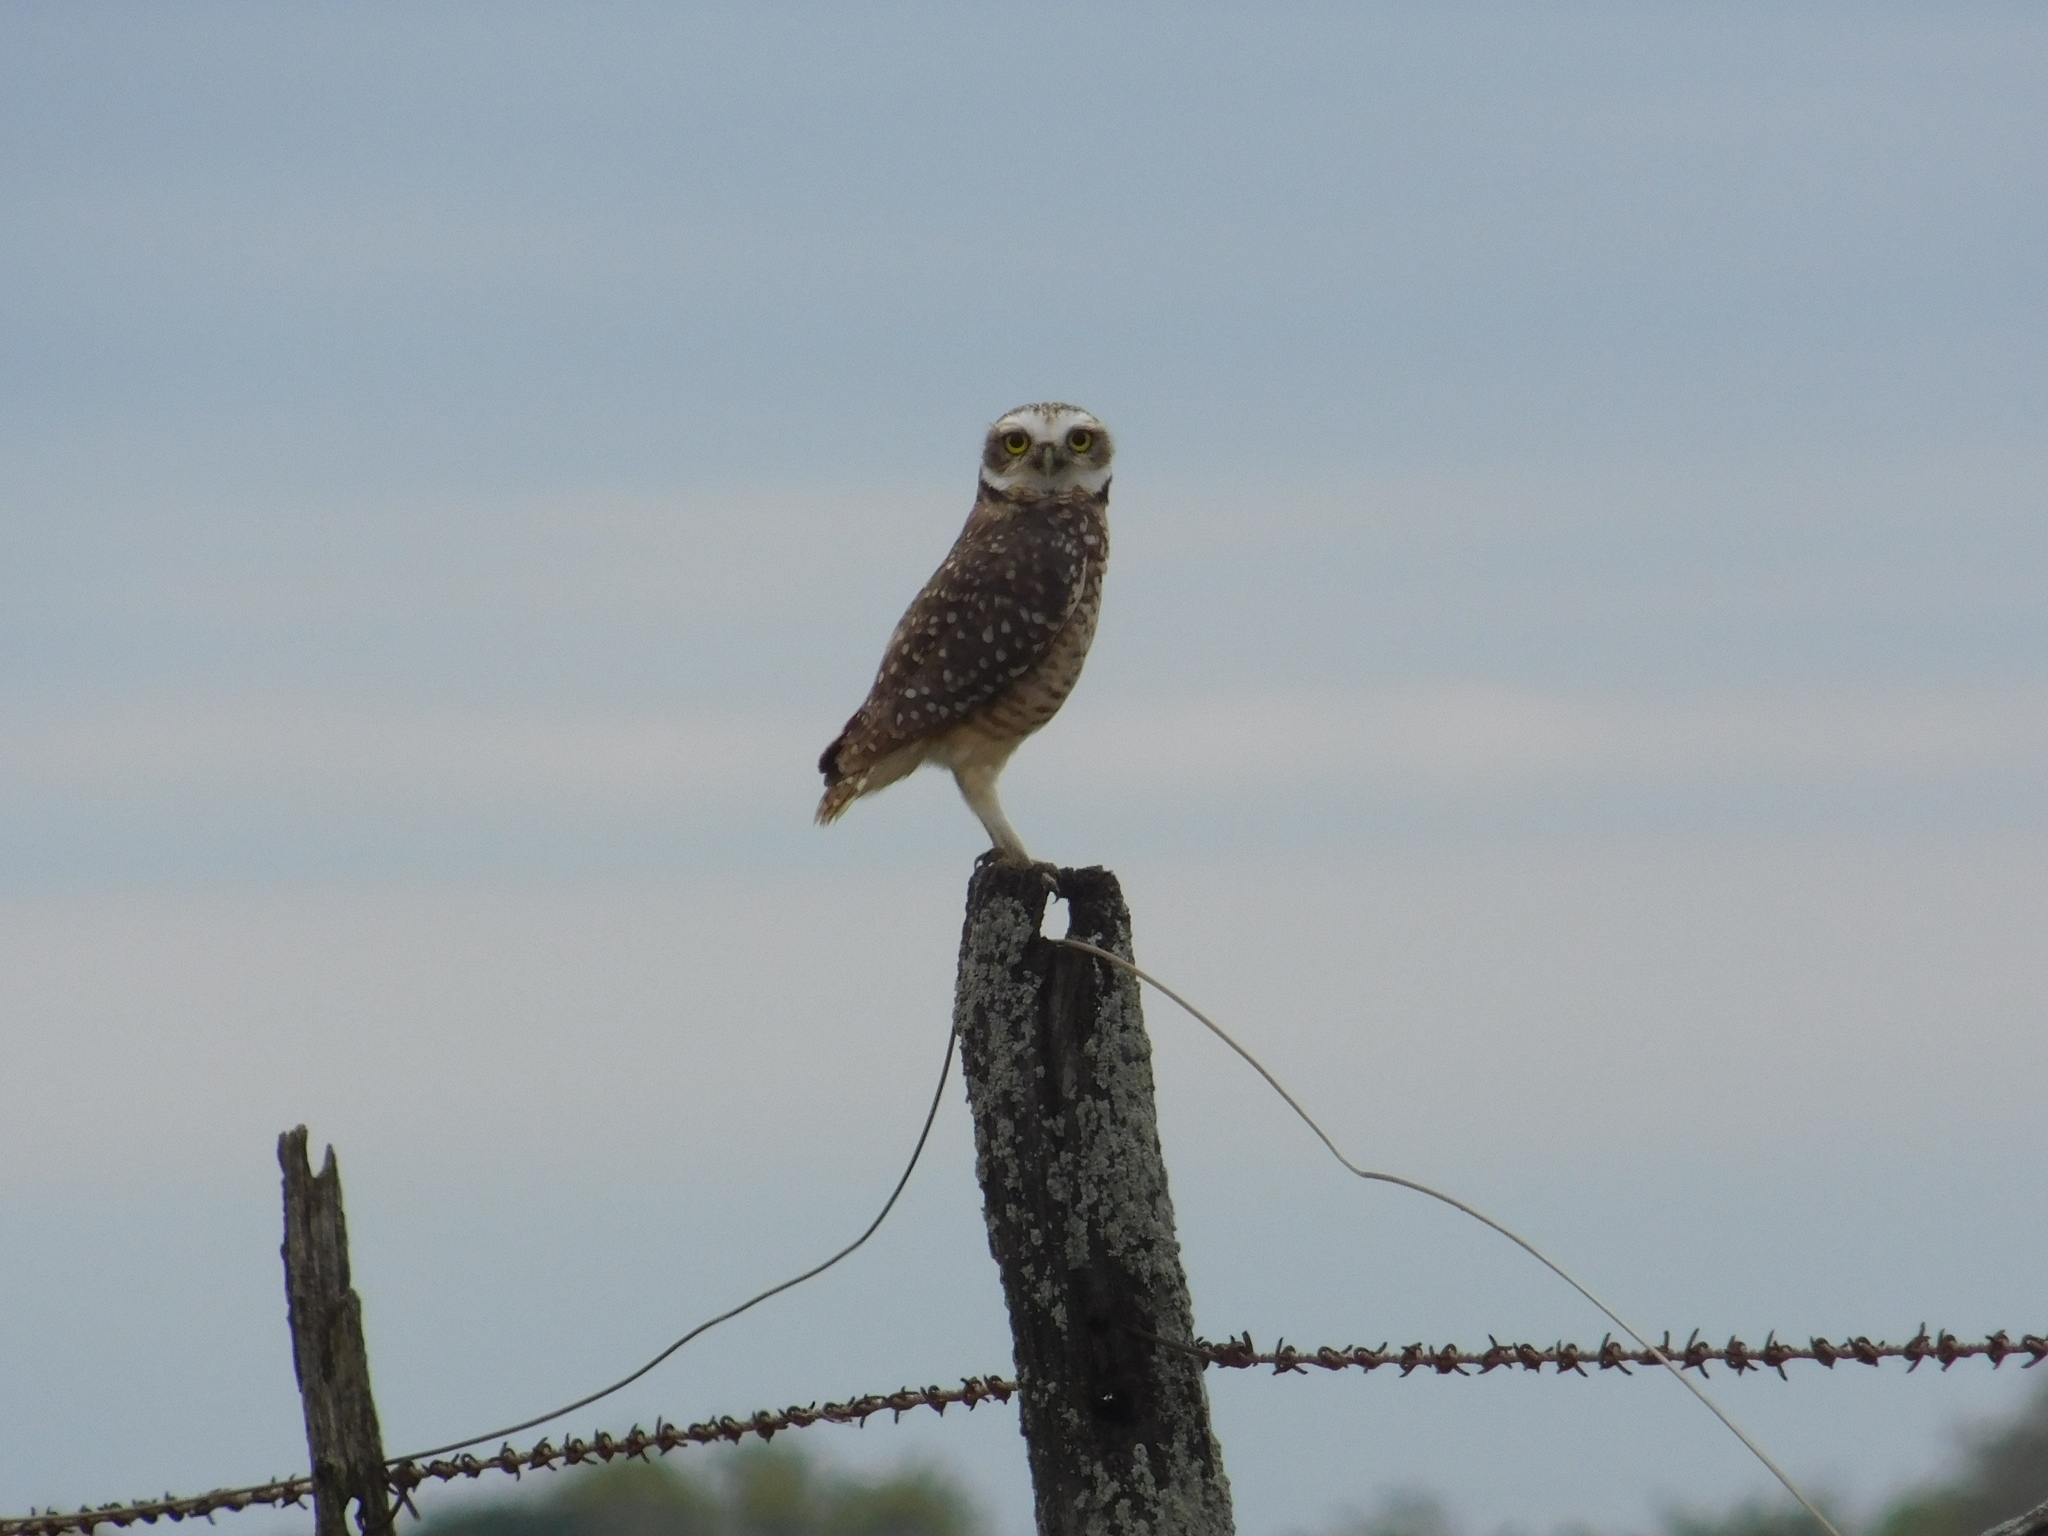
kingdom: Animalia
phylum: Chordata
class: Aves
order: Strigiformes
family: Strigidae
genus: Athene
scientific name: Athene cunicularia
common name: Burrowing owl
